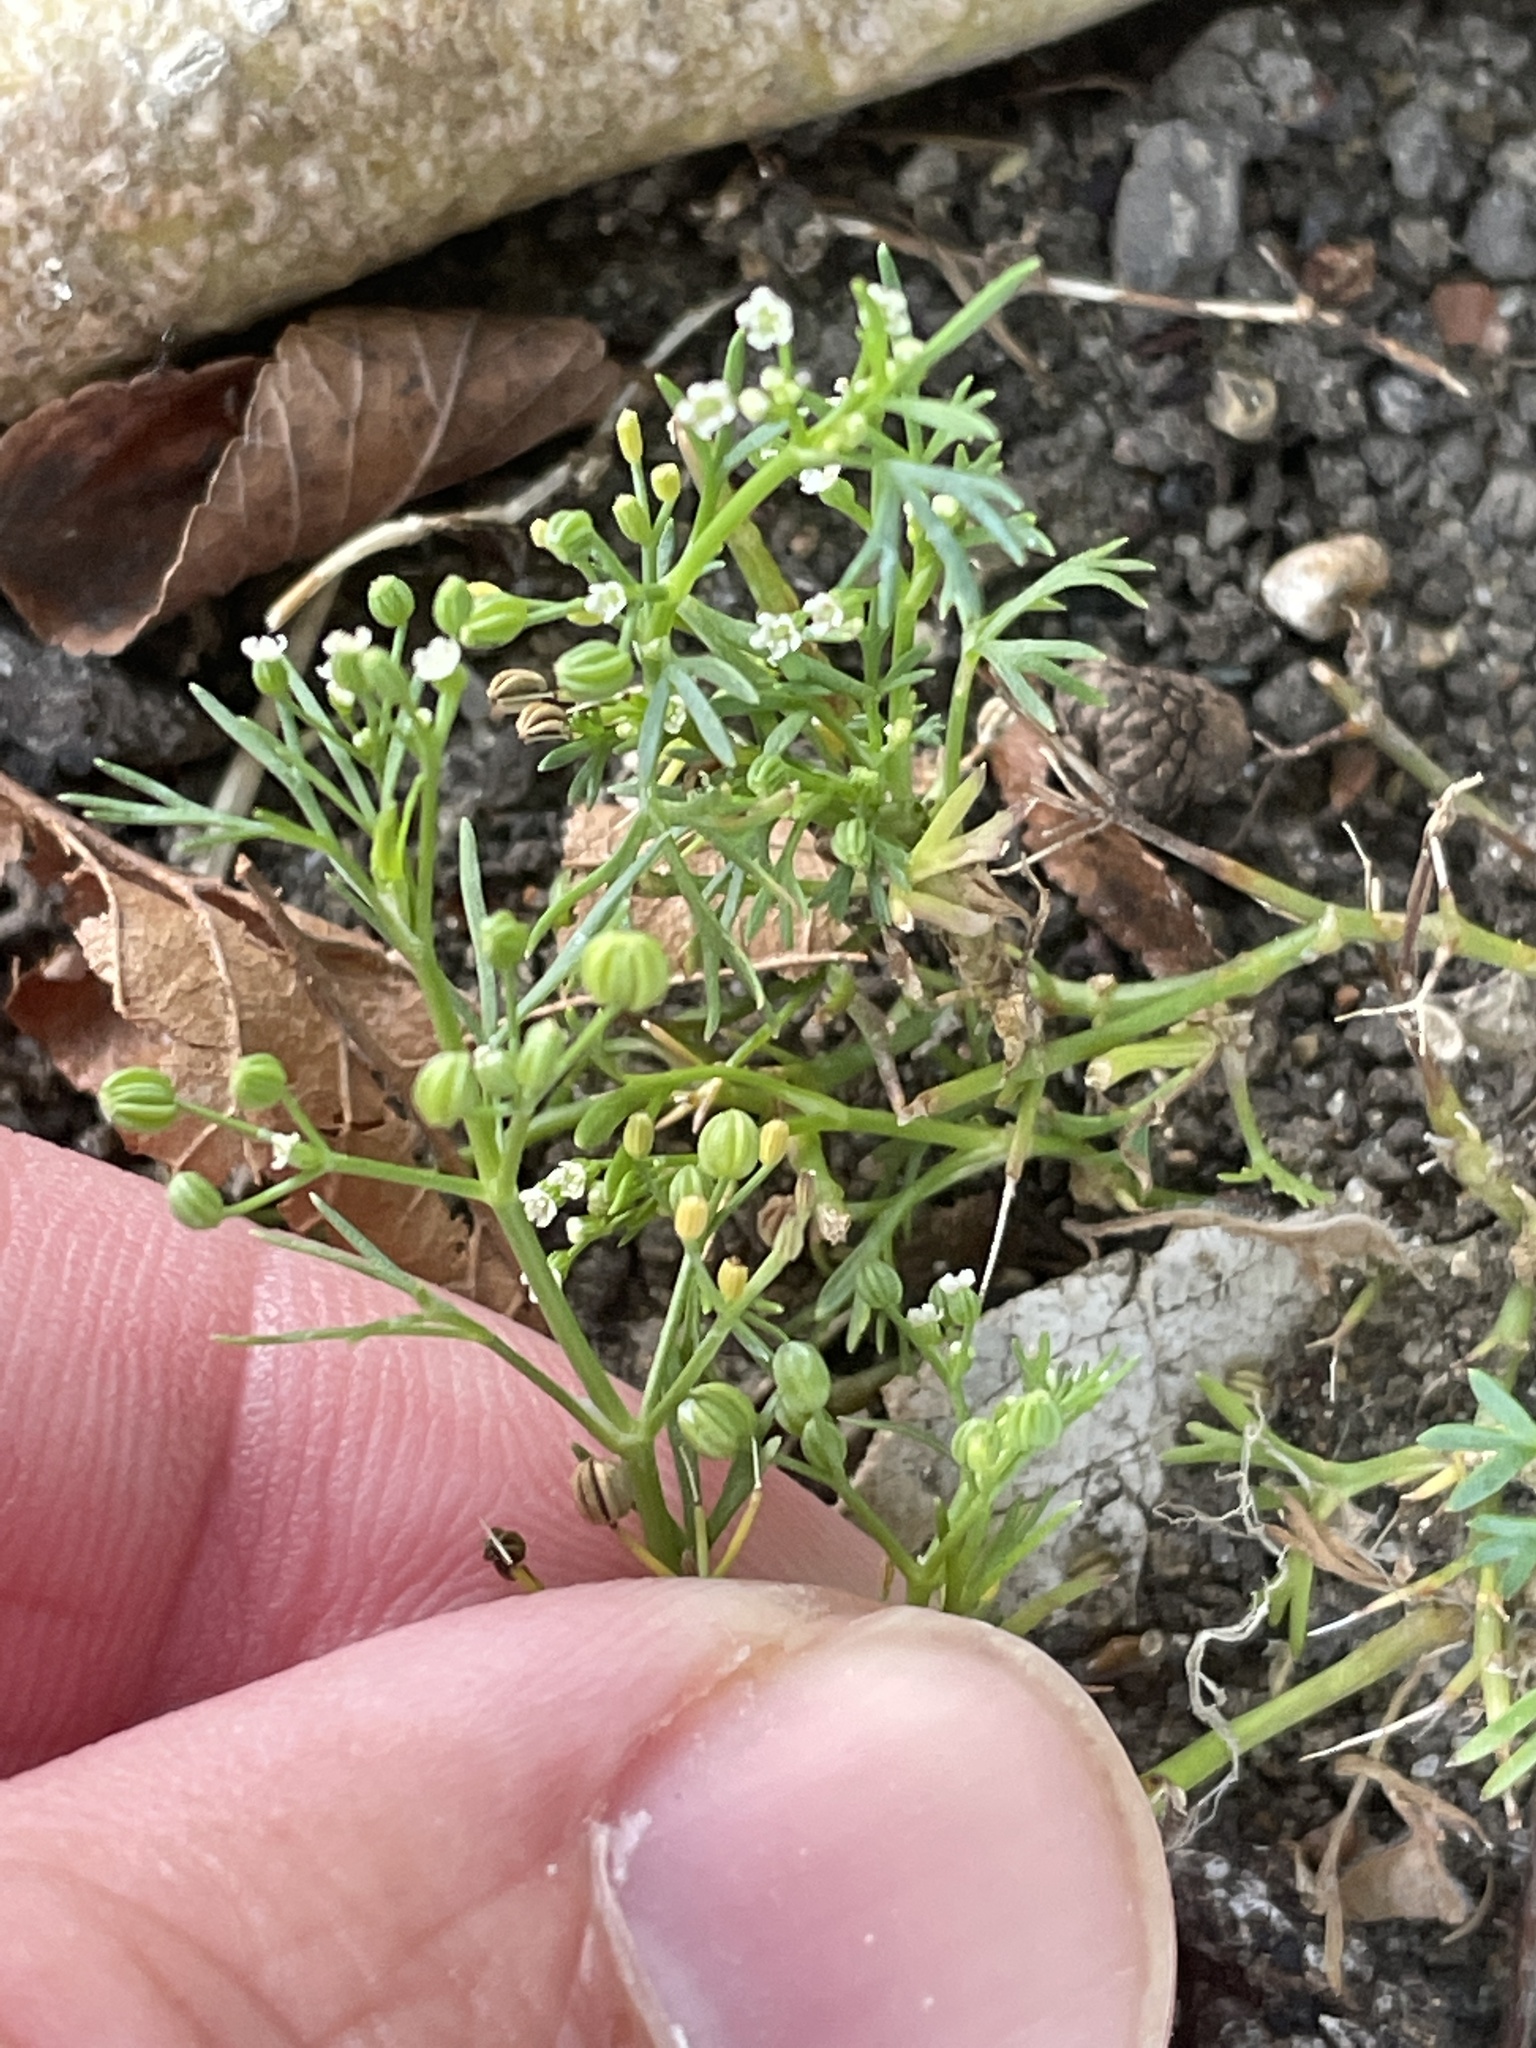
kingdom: Plantae
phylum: Tracheophyta
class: Magnoliopsida
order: Apiales
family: Apiaceae
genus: Cyclospermum
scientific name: Cyclospermum leptophyllum
